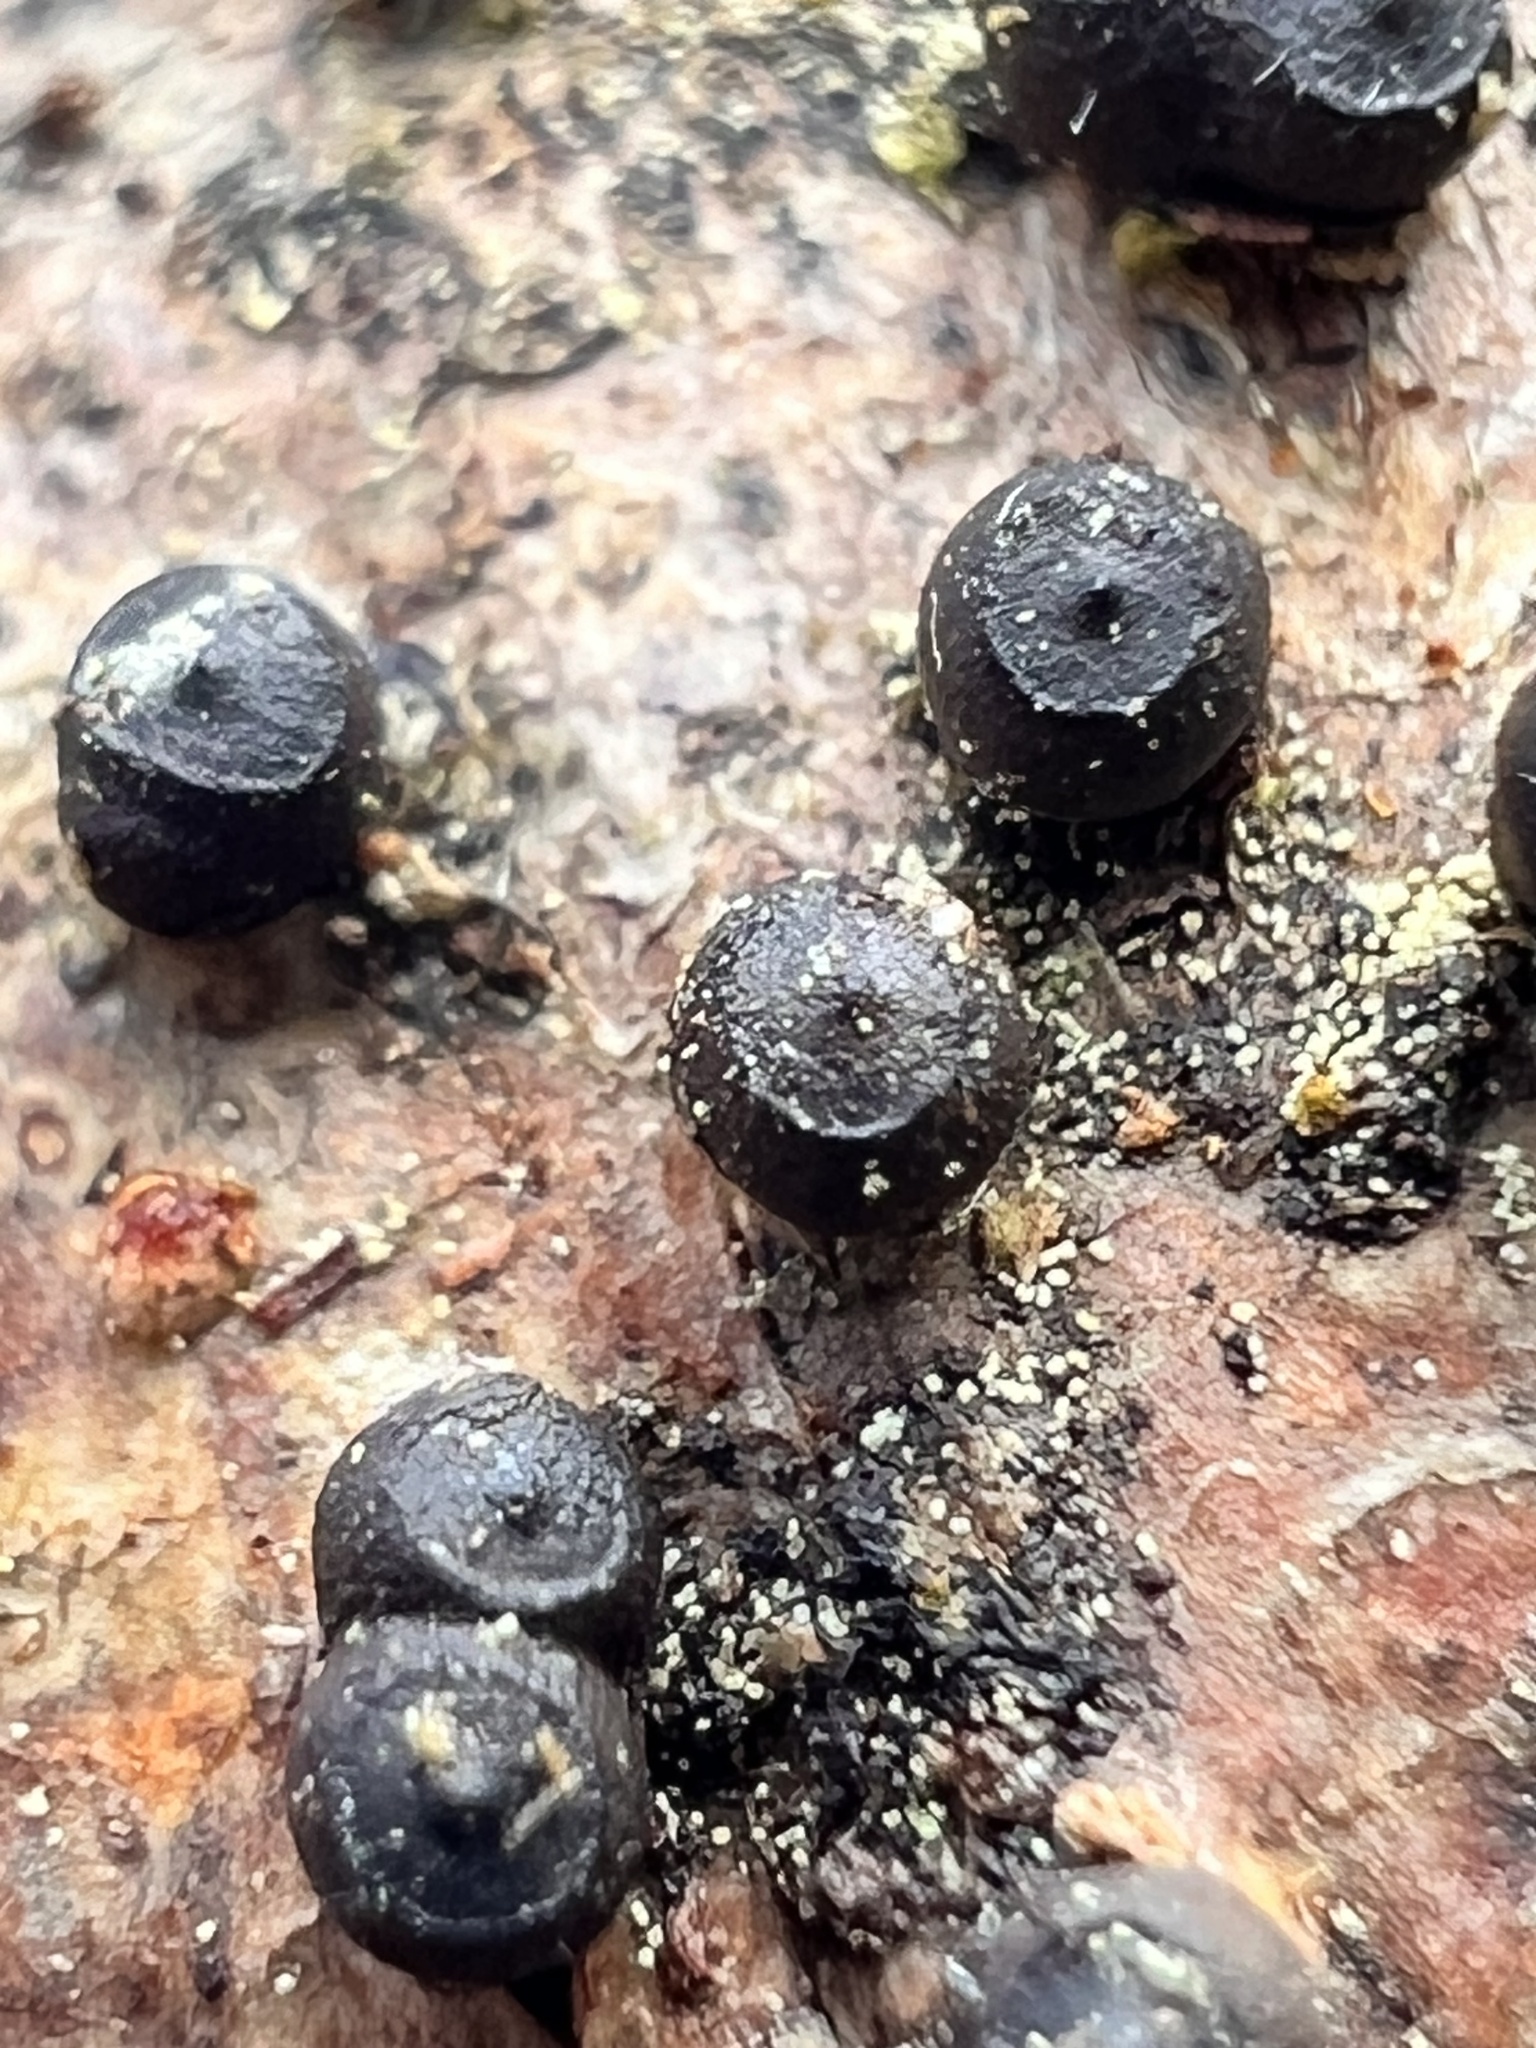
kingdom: Fungi
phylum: Ascomycota
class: Sordariomycetes
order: Xylariales
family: Hypoxylaceae
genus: Annulohypoxylon
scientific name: Annulohypoxylon bovei
